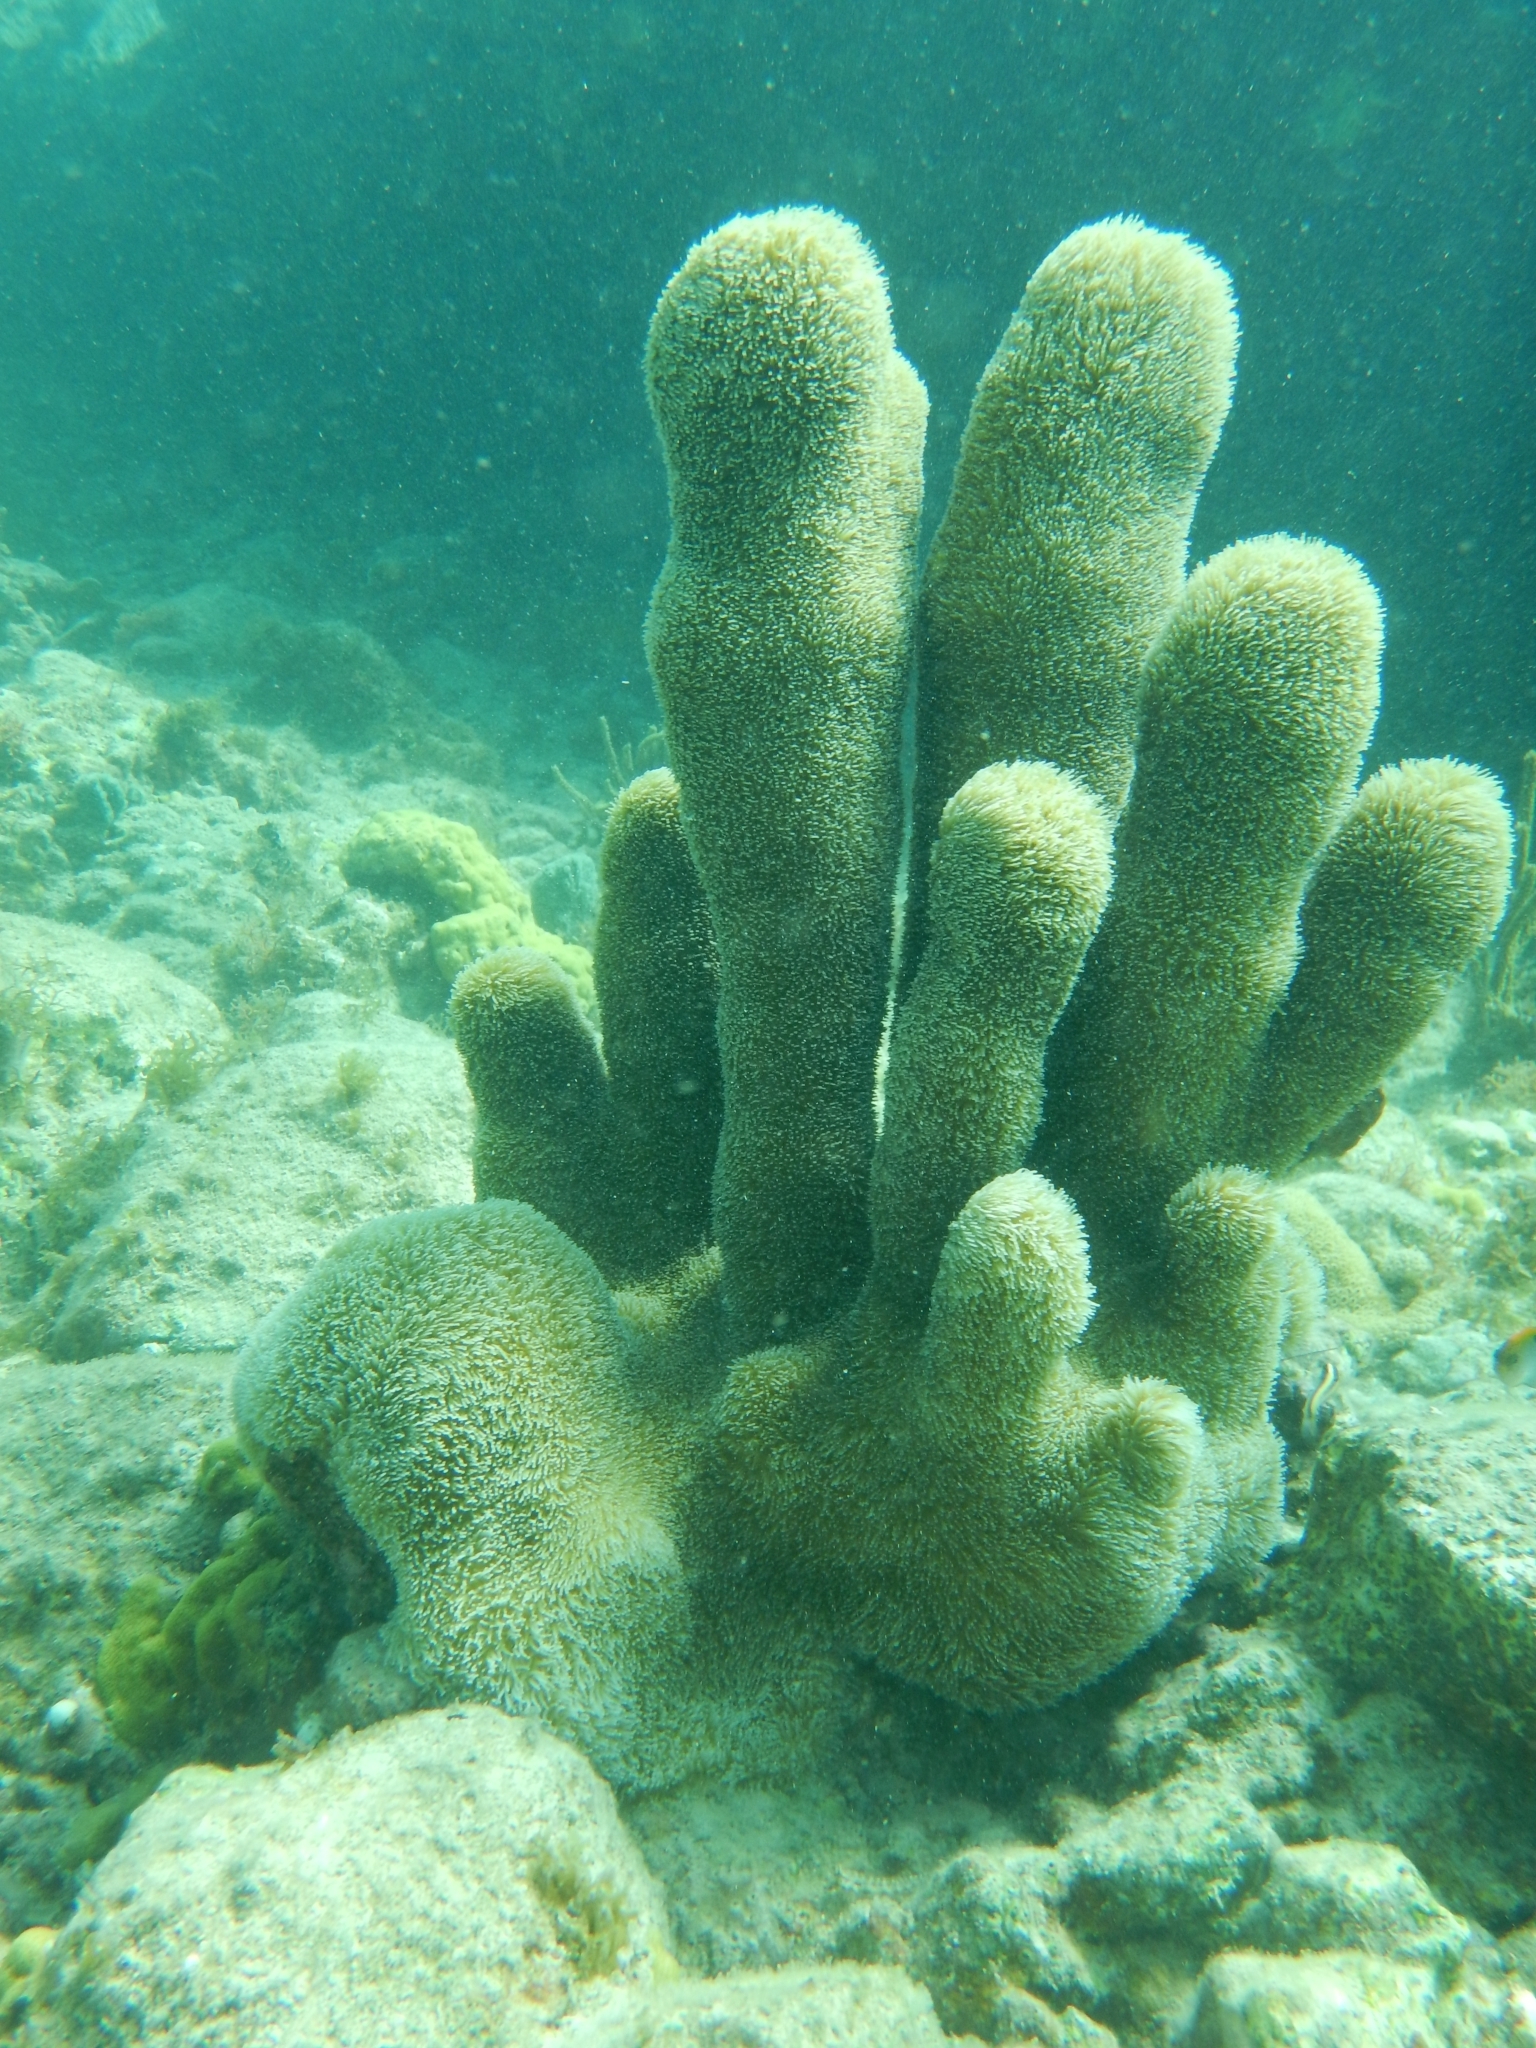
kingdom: Animalia
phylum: Cnidaria
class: Anthozoa
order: Scleractinia
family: Meandrinidae
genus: Dendrogyra
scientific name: Dendrogyra cylindrus
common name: Pillar coral
